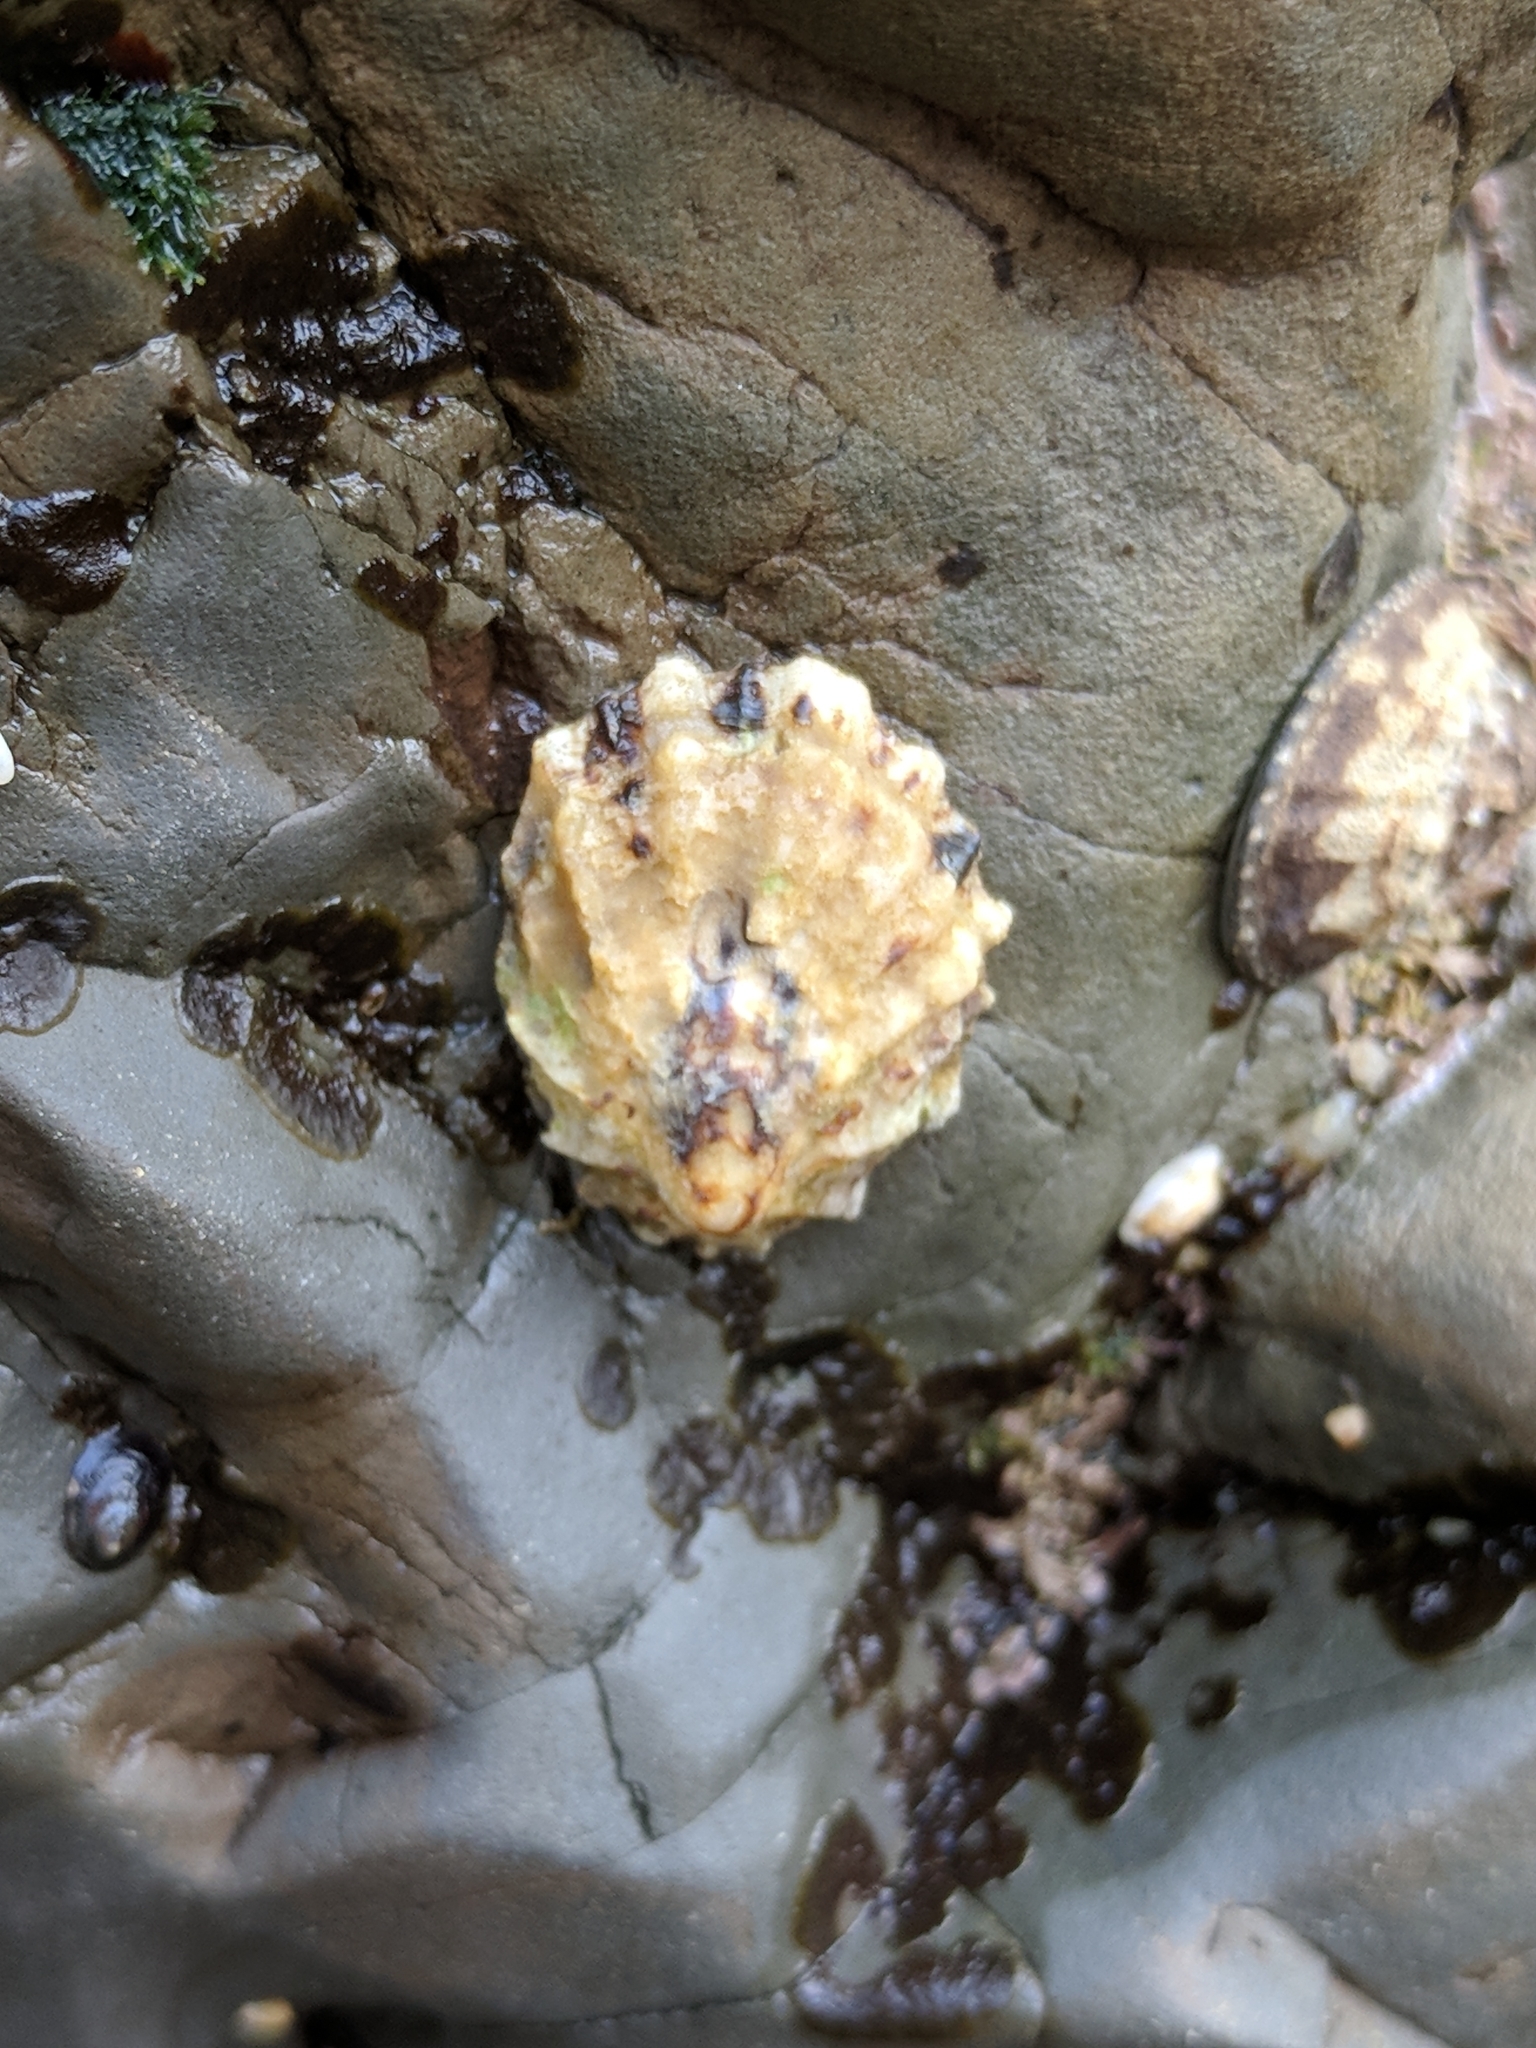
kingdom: Animalia
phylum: Mollusca
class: Gastropoda
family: Lottiidae
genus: Lottia
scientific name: Lottia digitalis
